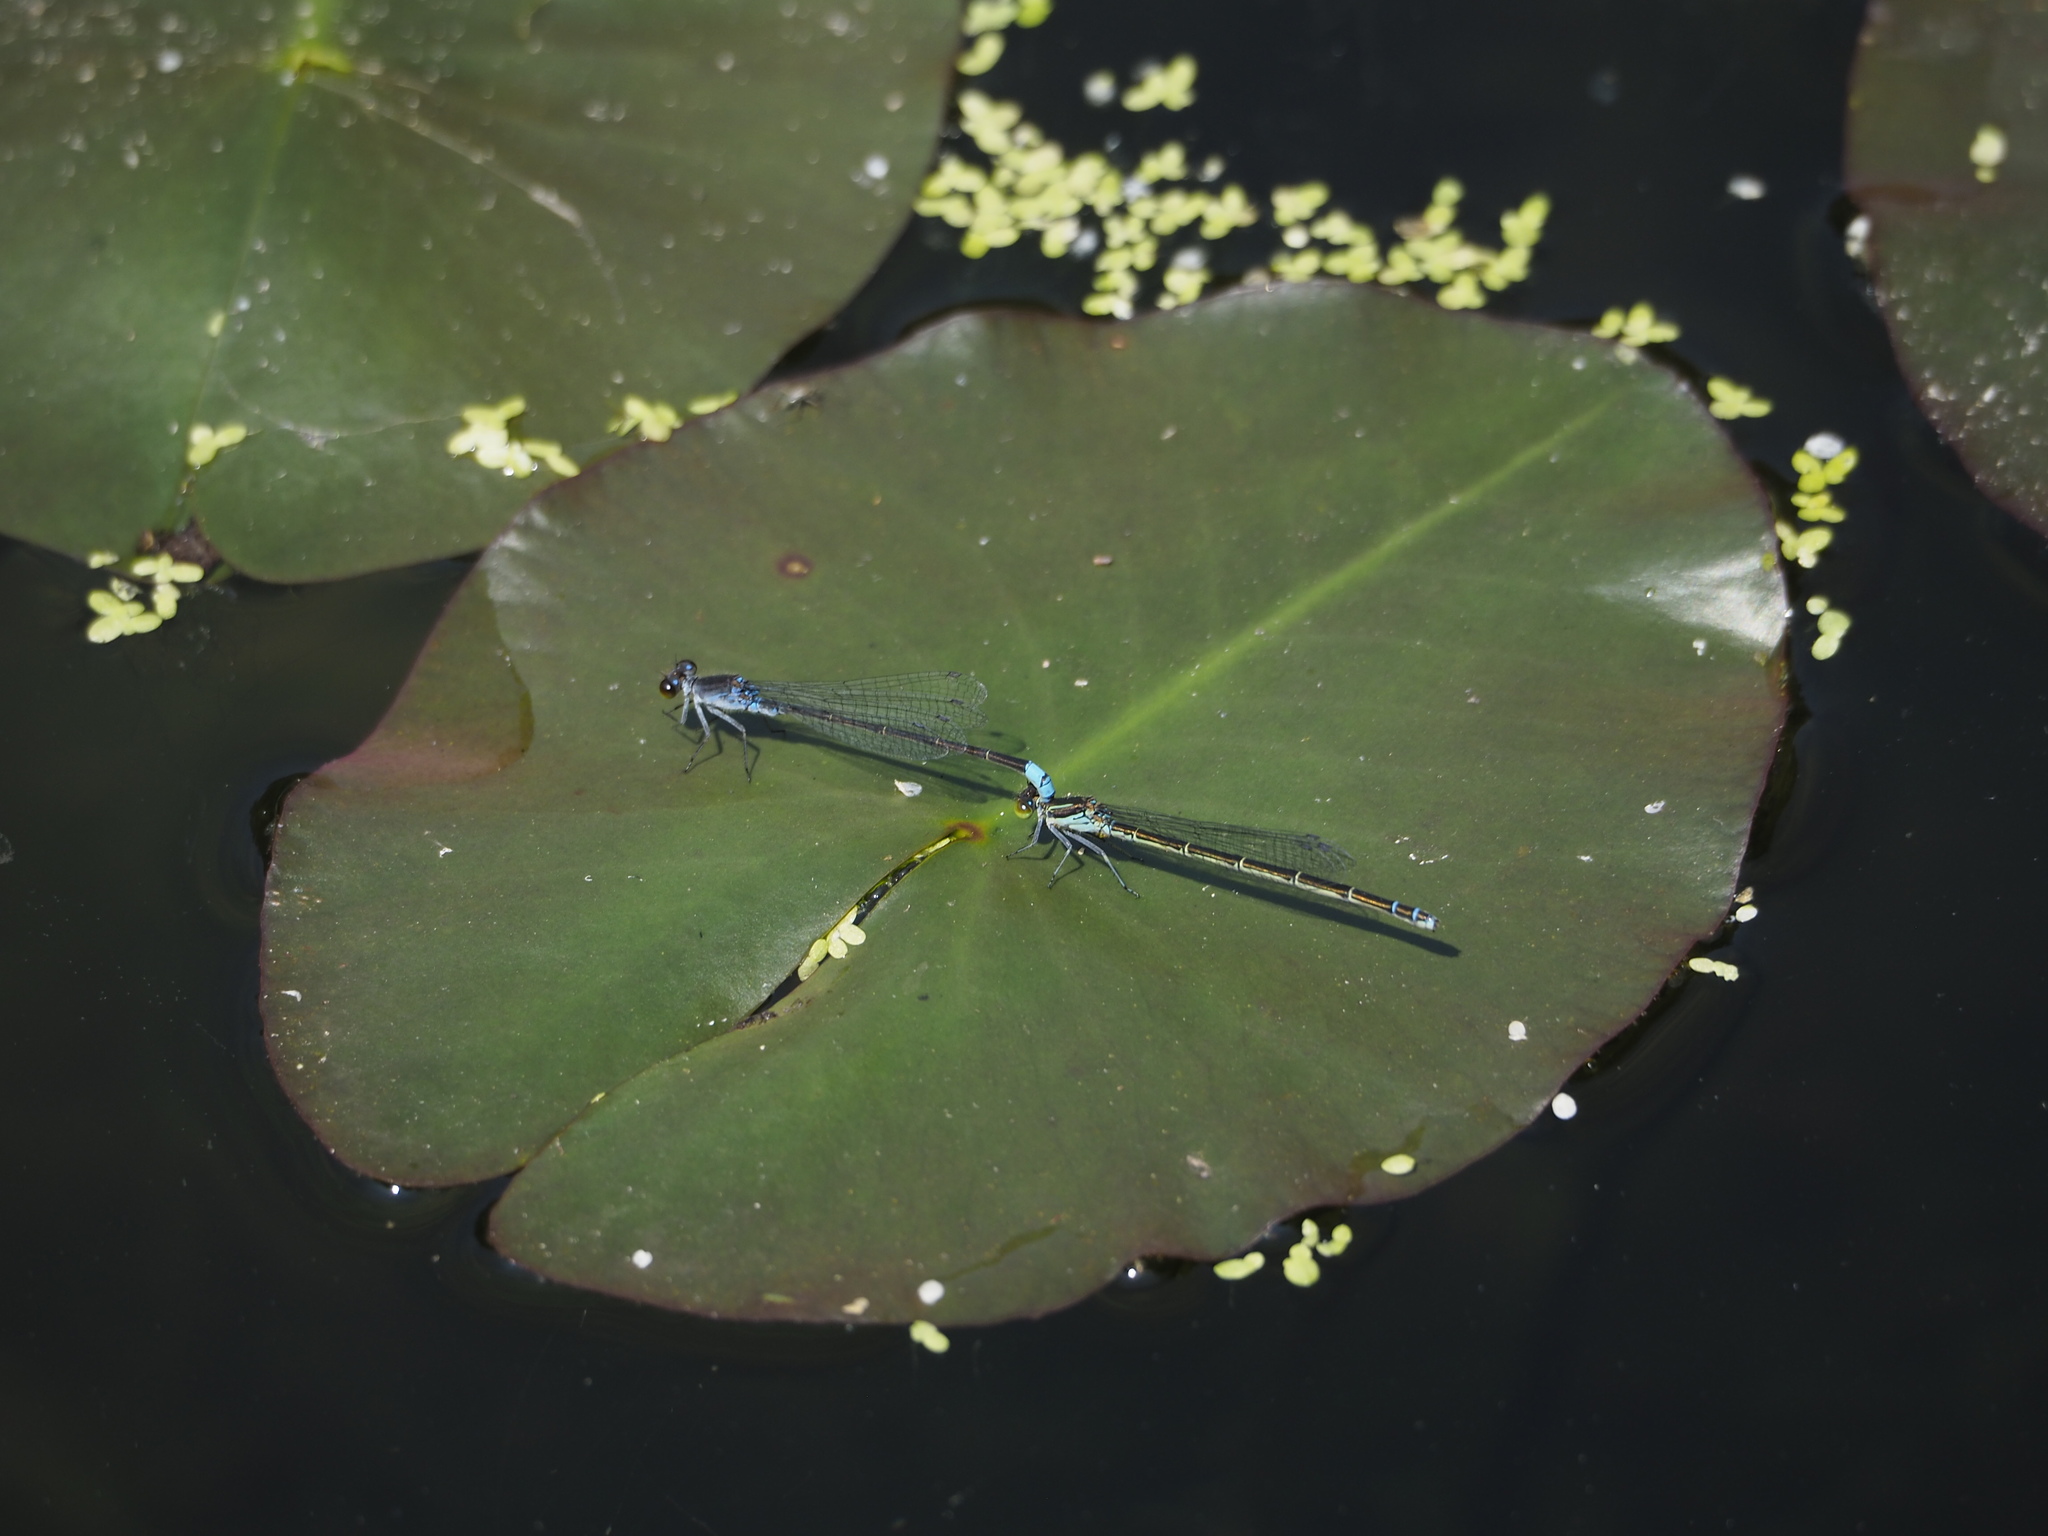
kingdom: Animalia
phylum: Arthropoda
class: Insecta
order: Odonata
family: Coenagrionidae
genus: Paracercion
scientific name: Paracercion calamorum
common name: Dusky lilysquatter
